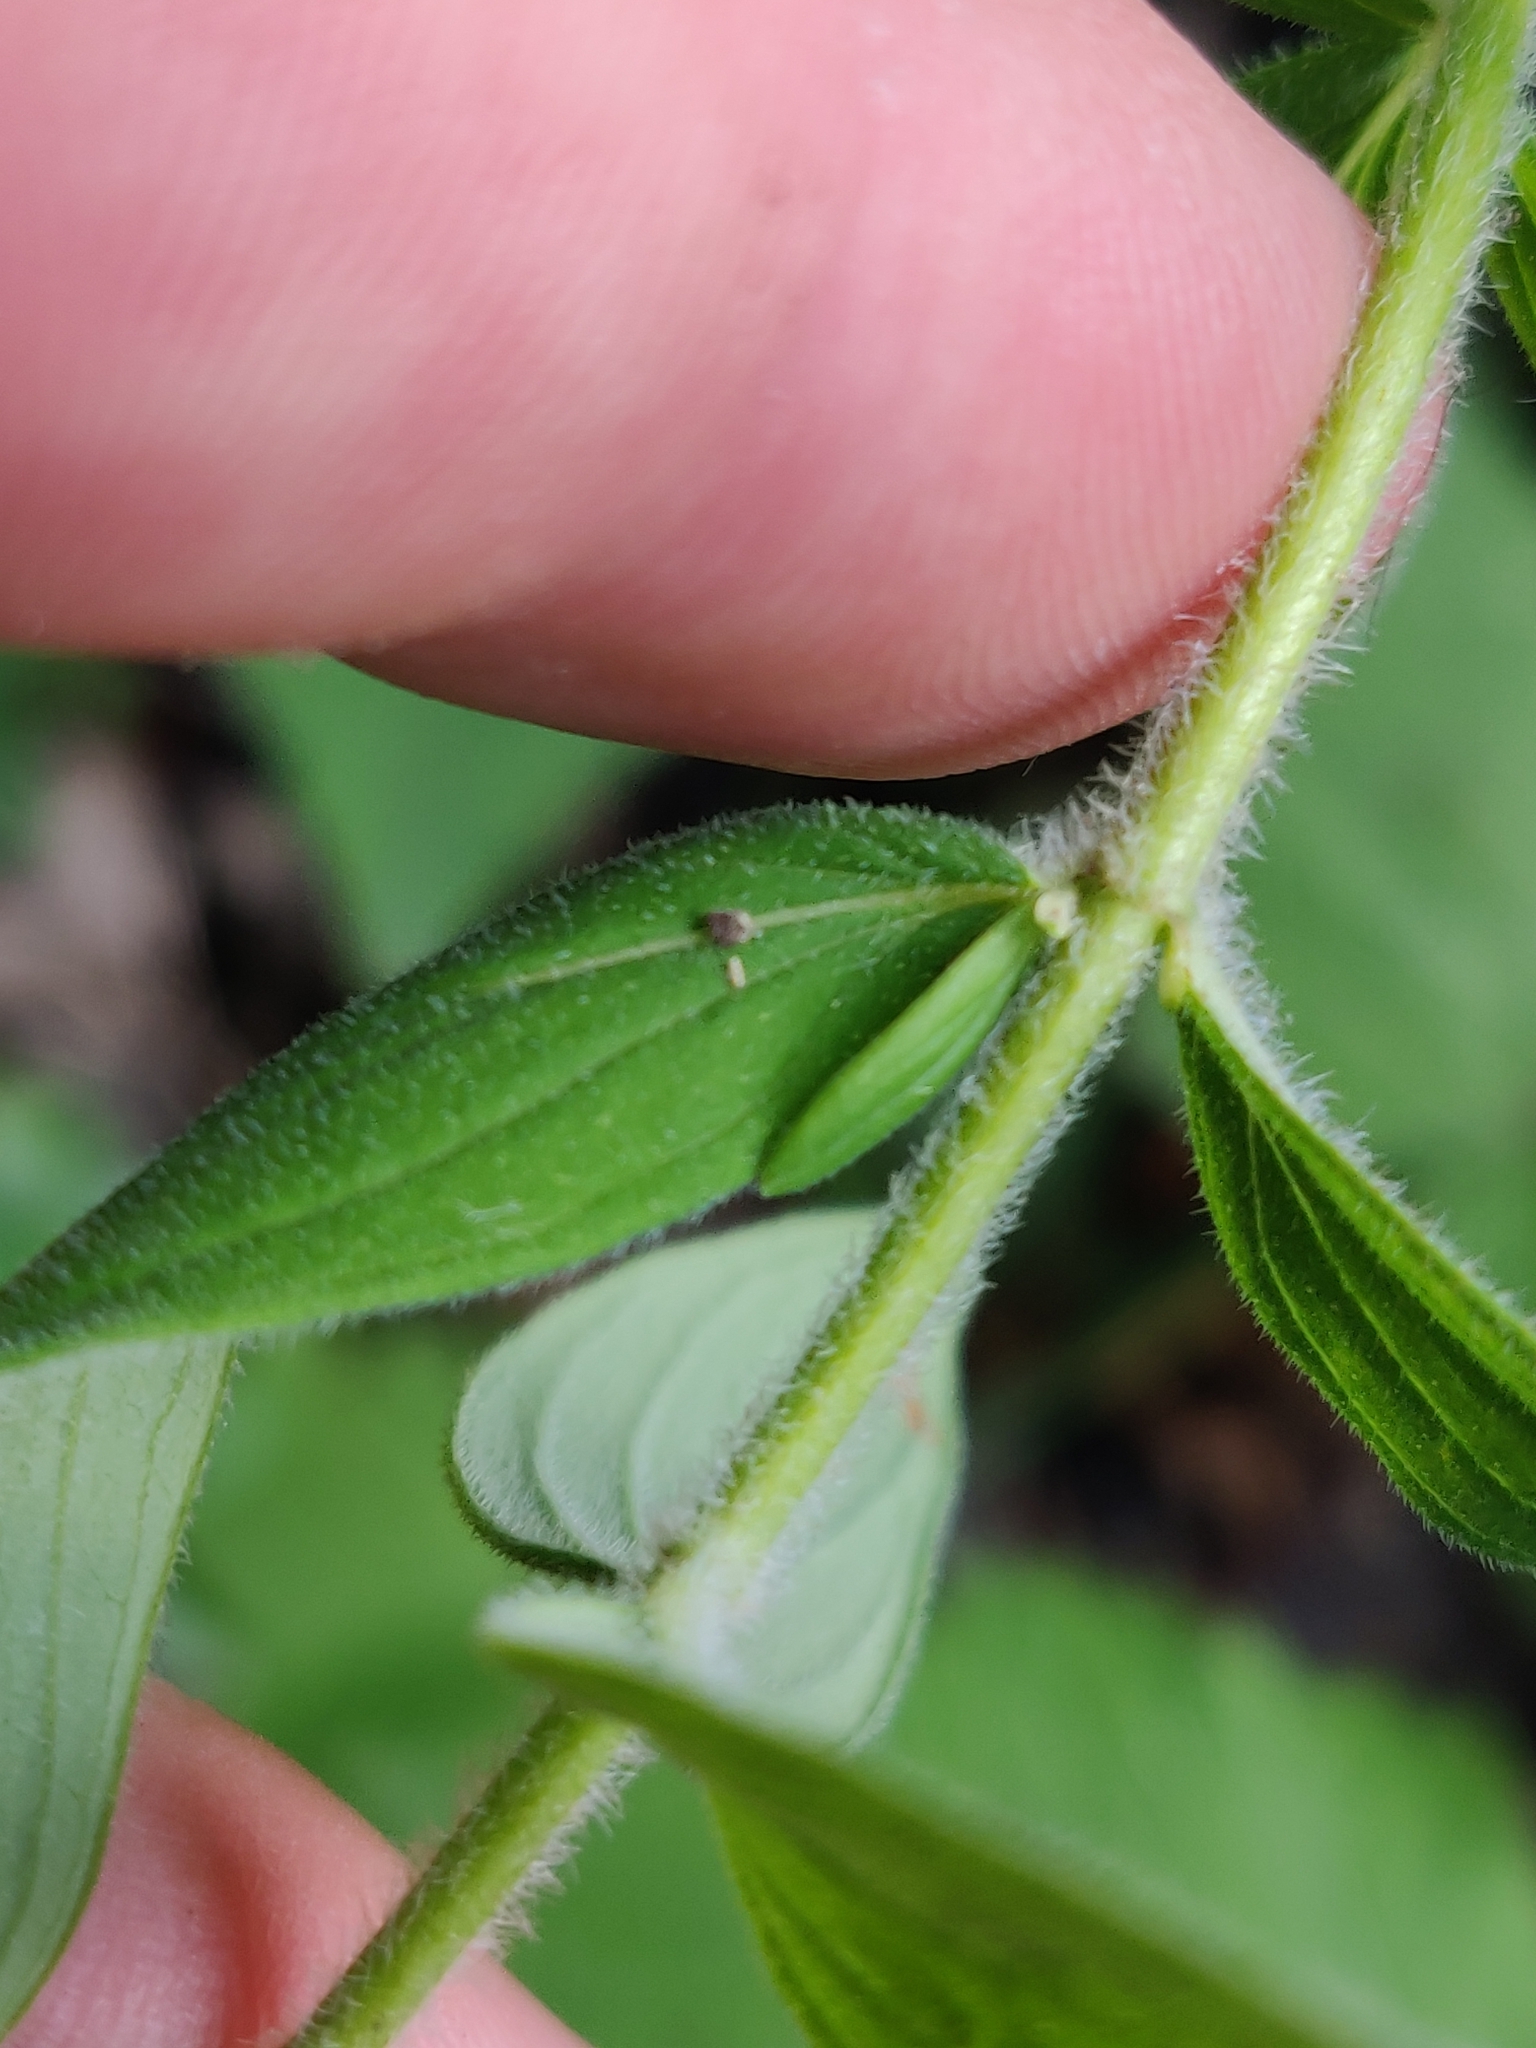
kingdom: Plantae
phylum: Tracheophyta
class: Magnoliopsida
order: Malpighiales
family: Hypericaceae
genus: Hypericum
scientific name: Hypericum hirsutum
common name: Hairy st. john's-wort
